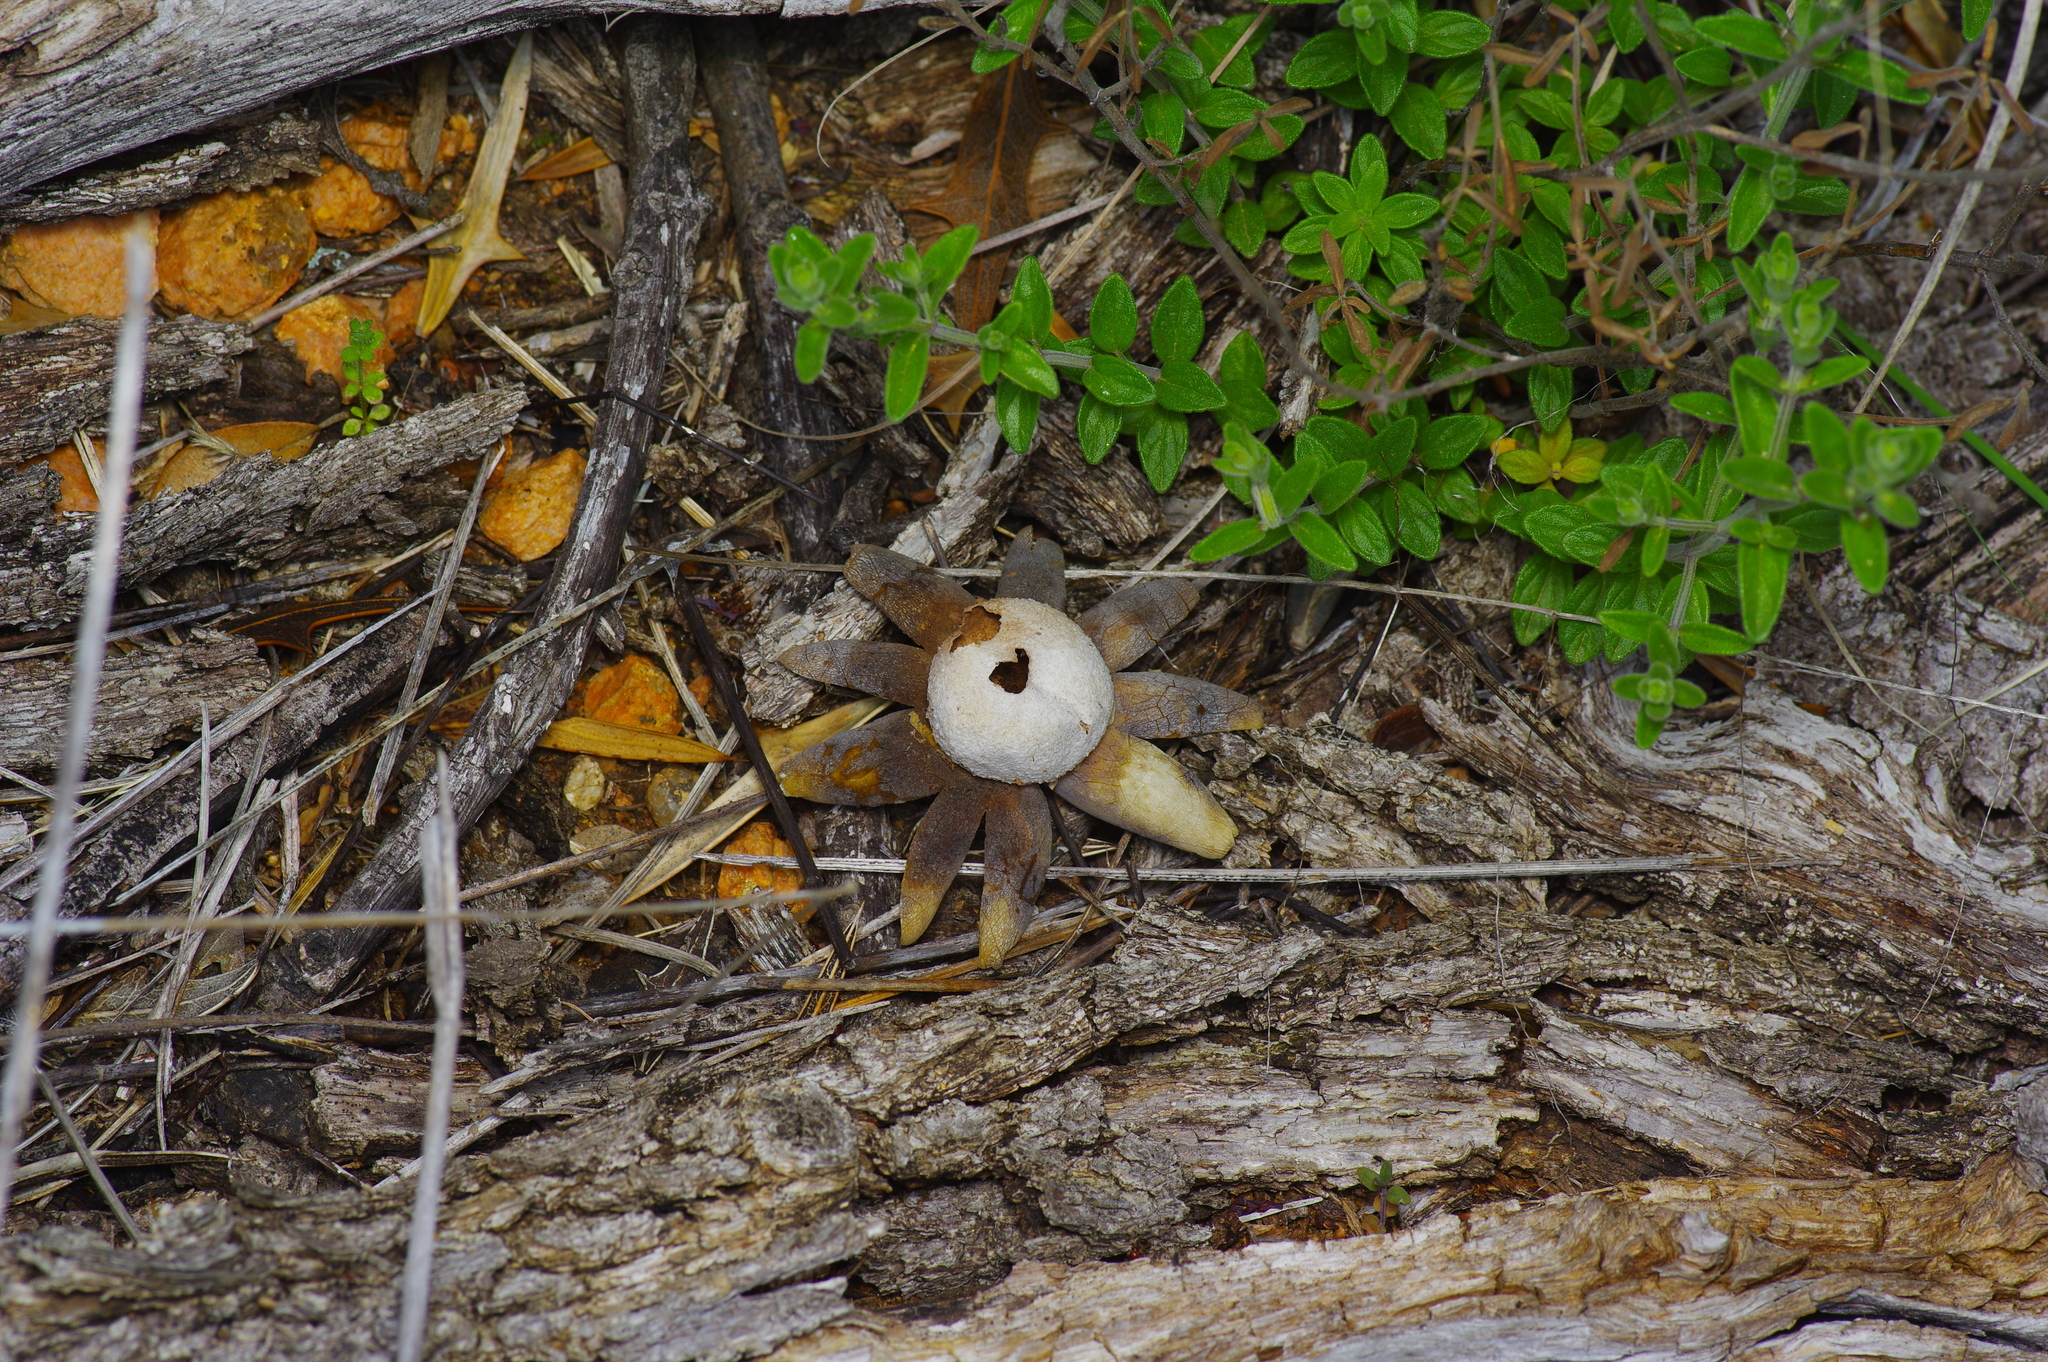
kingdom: Fungi
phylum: Basidiomycota
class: Agaricomycetes
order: Boletales
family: Diplocystidiaceae
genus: Astraeus
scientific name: Astraeus morganii
